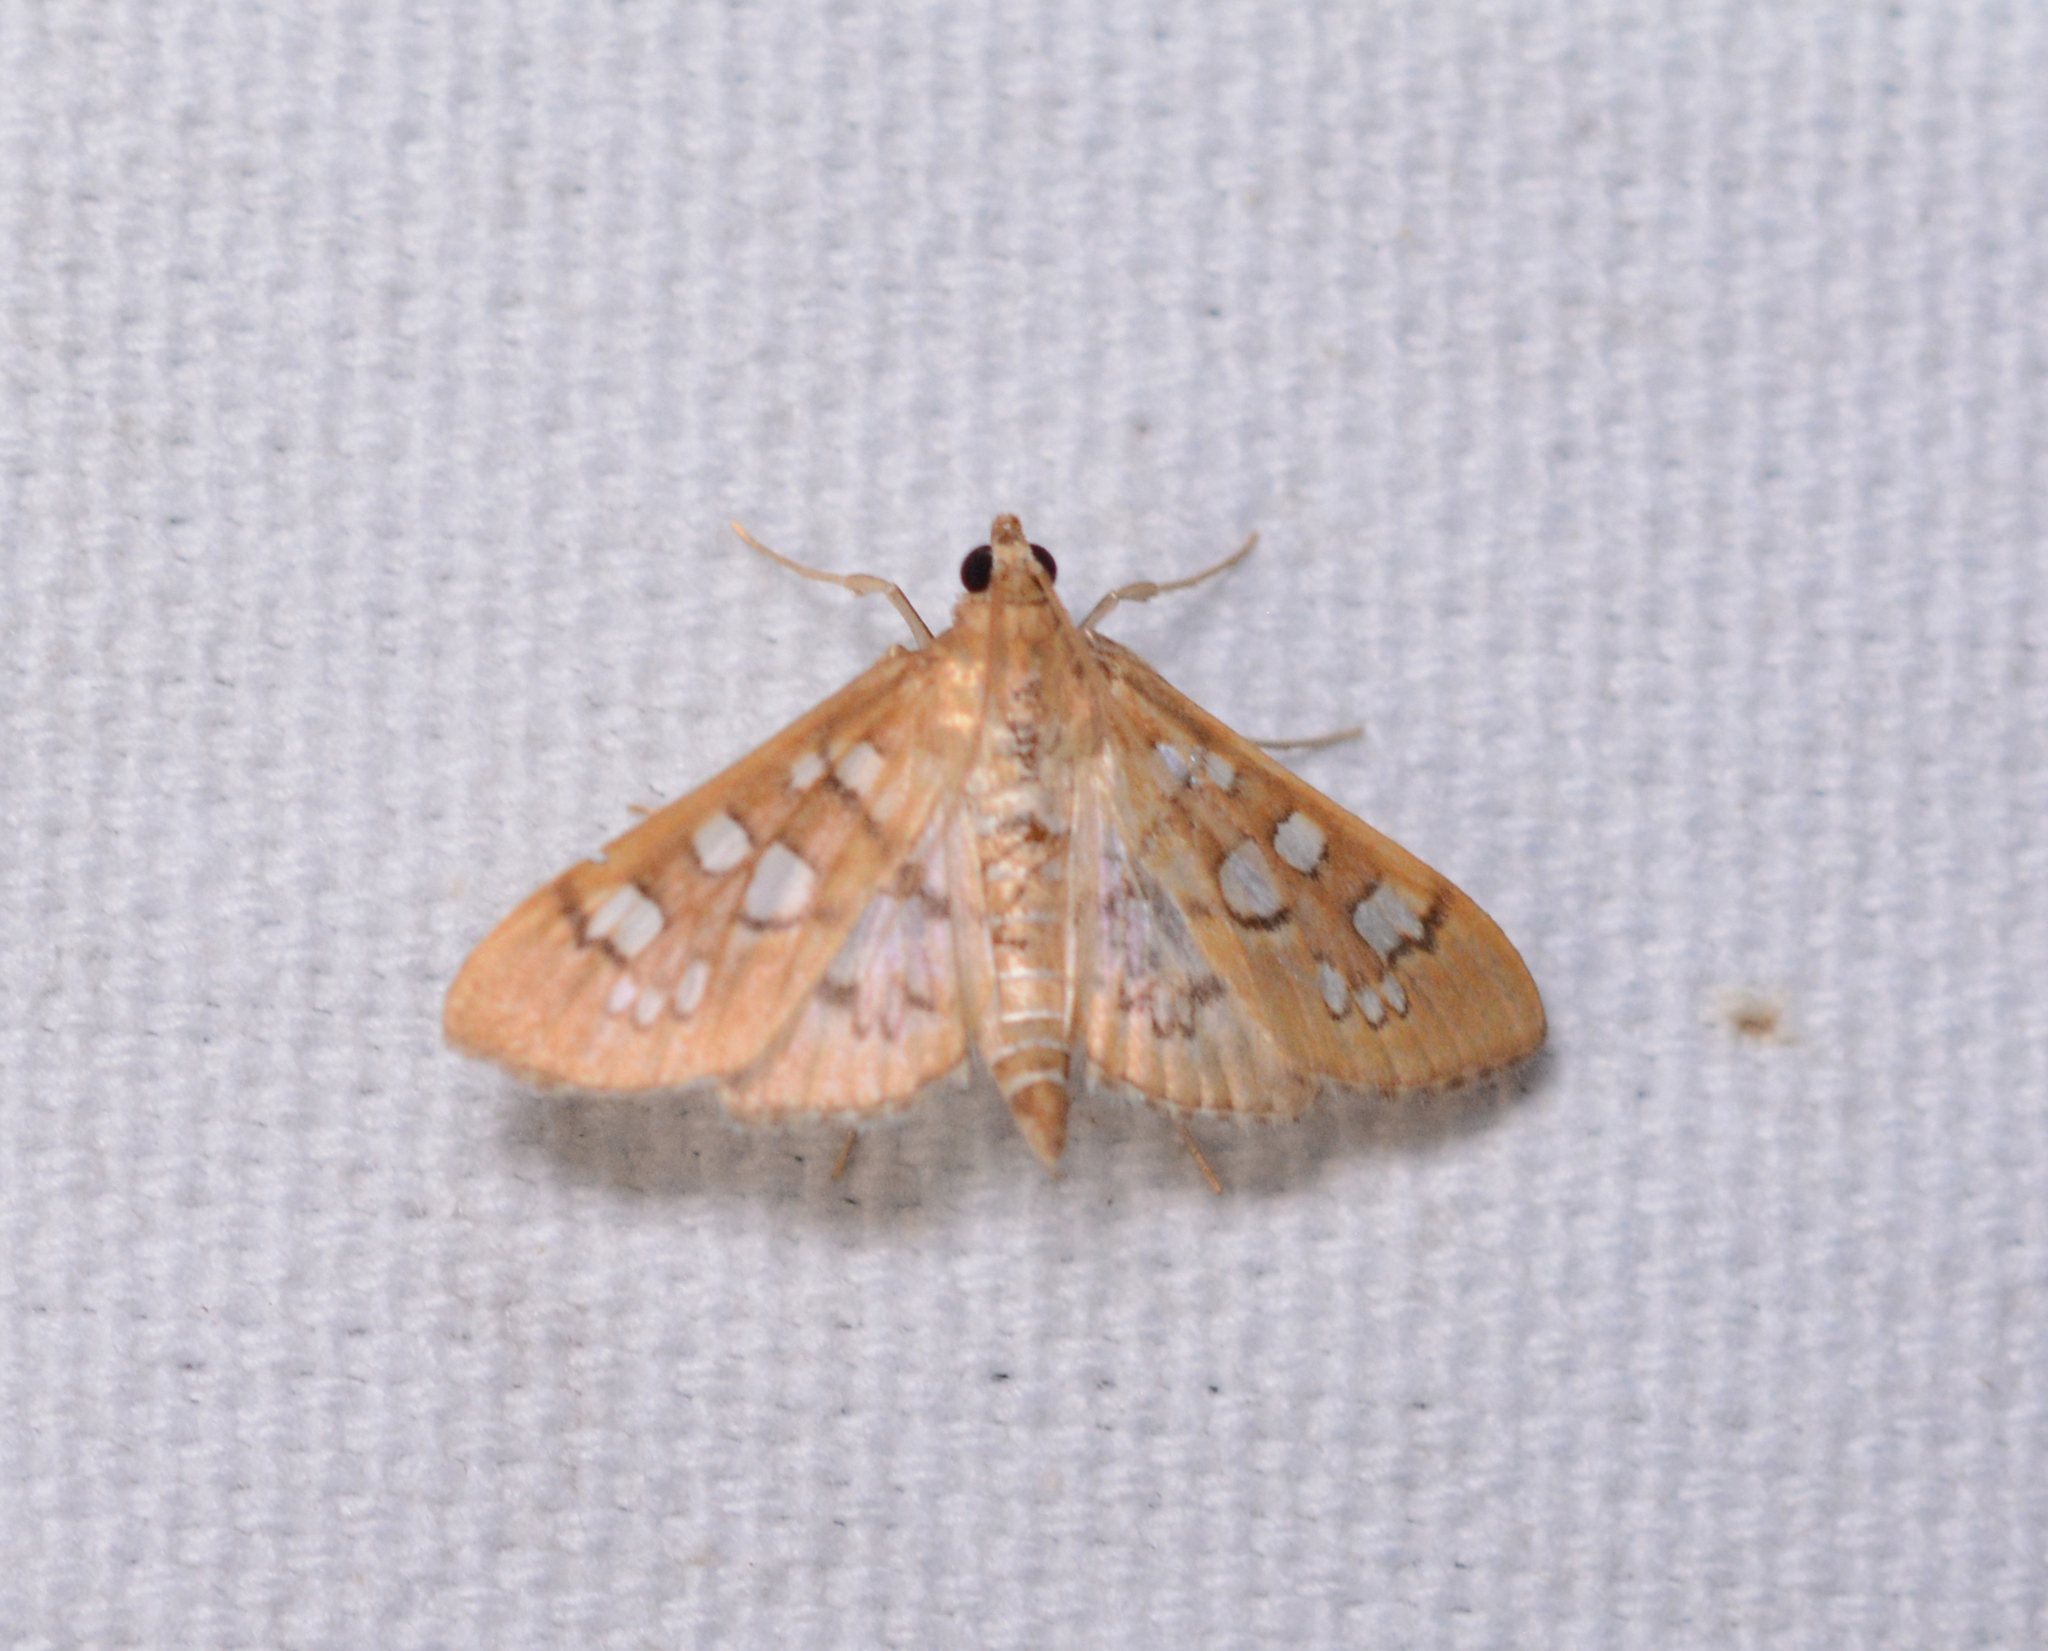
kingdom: Animalia
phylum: Arthropoda
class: Insecta
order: Lepidoptera
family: Crambidae
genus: Samea
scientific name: Samea baccatalis
